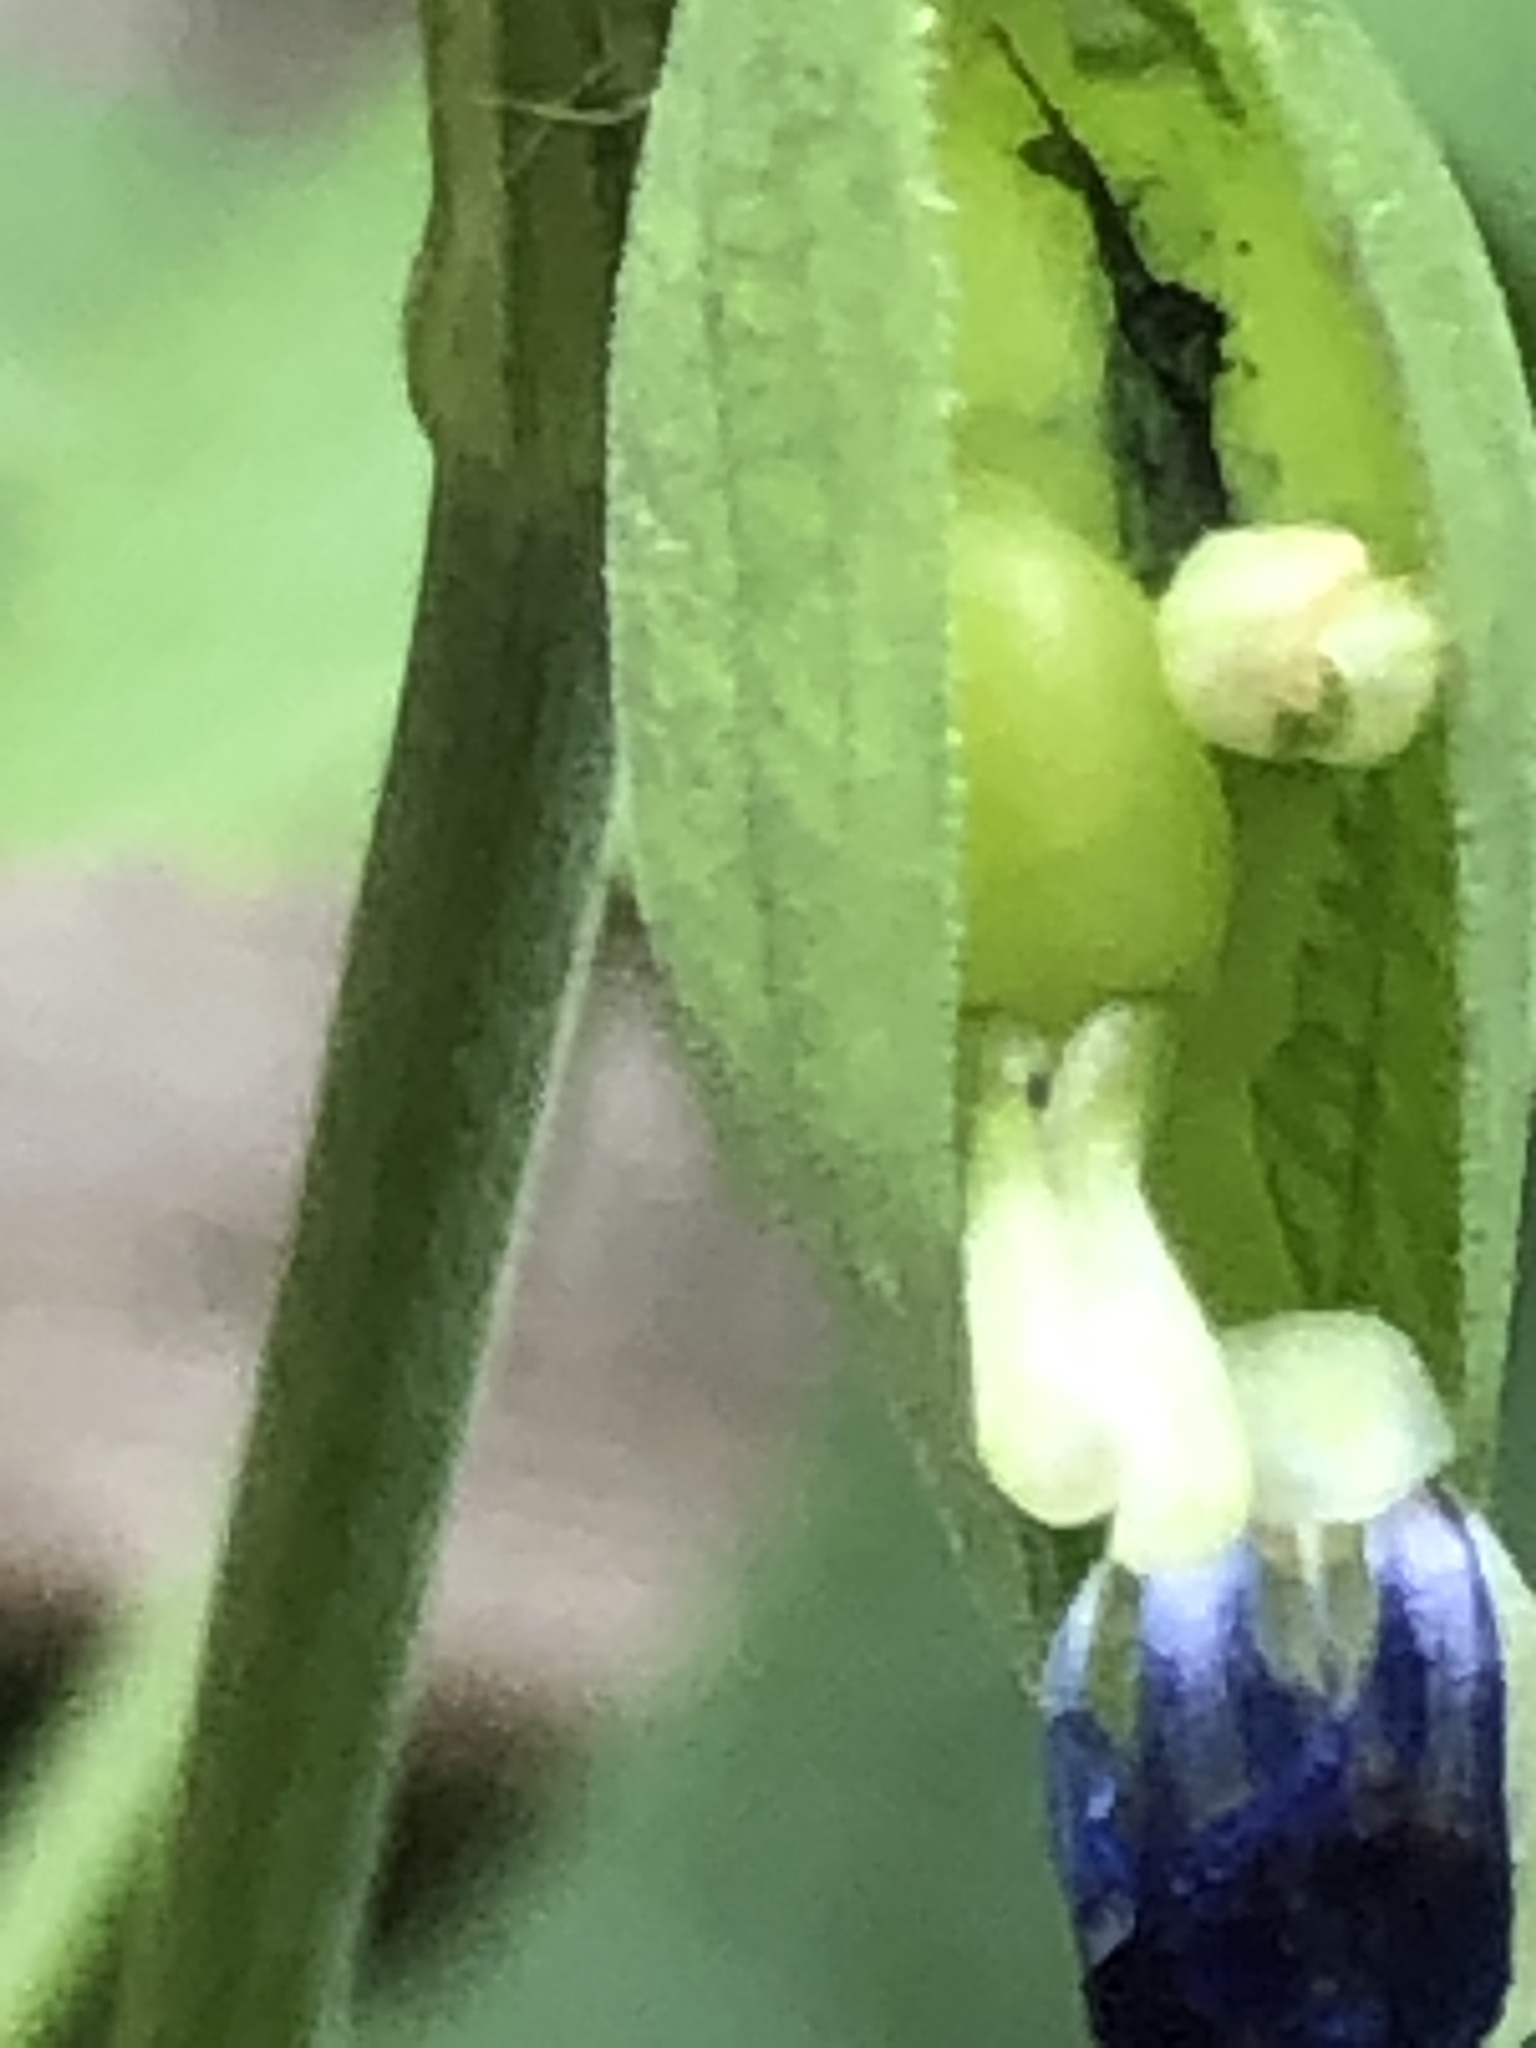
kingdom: Plantae
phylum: Tracheophyta
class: Liliopsida
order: Commelinales
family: Commelinaceae
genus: Commelina
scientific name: Commelina communis
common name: Asiatic dayflower
